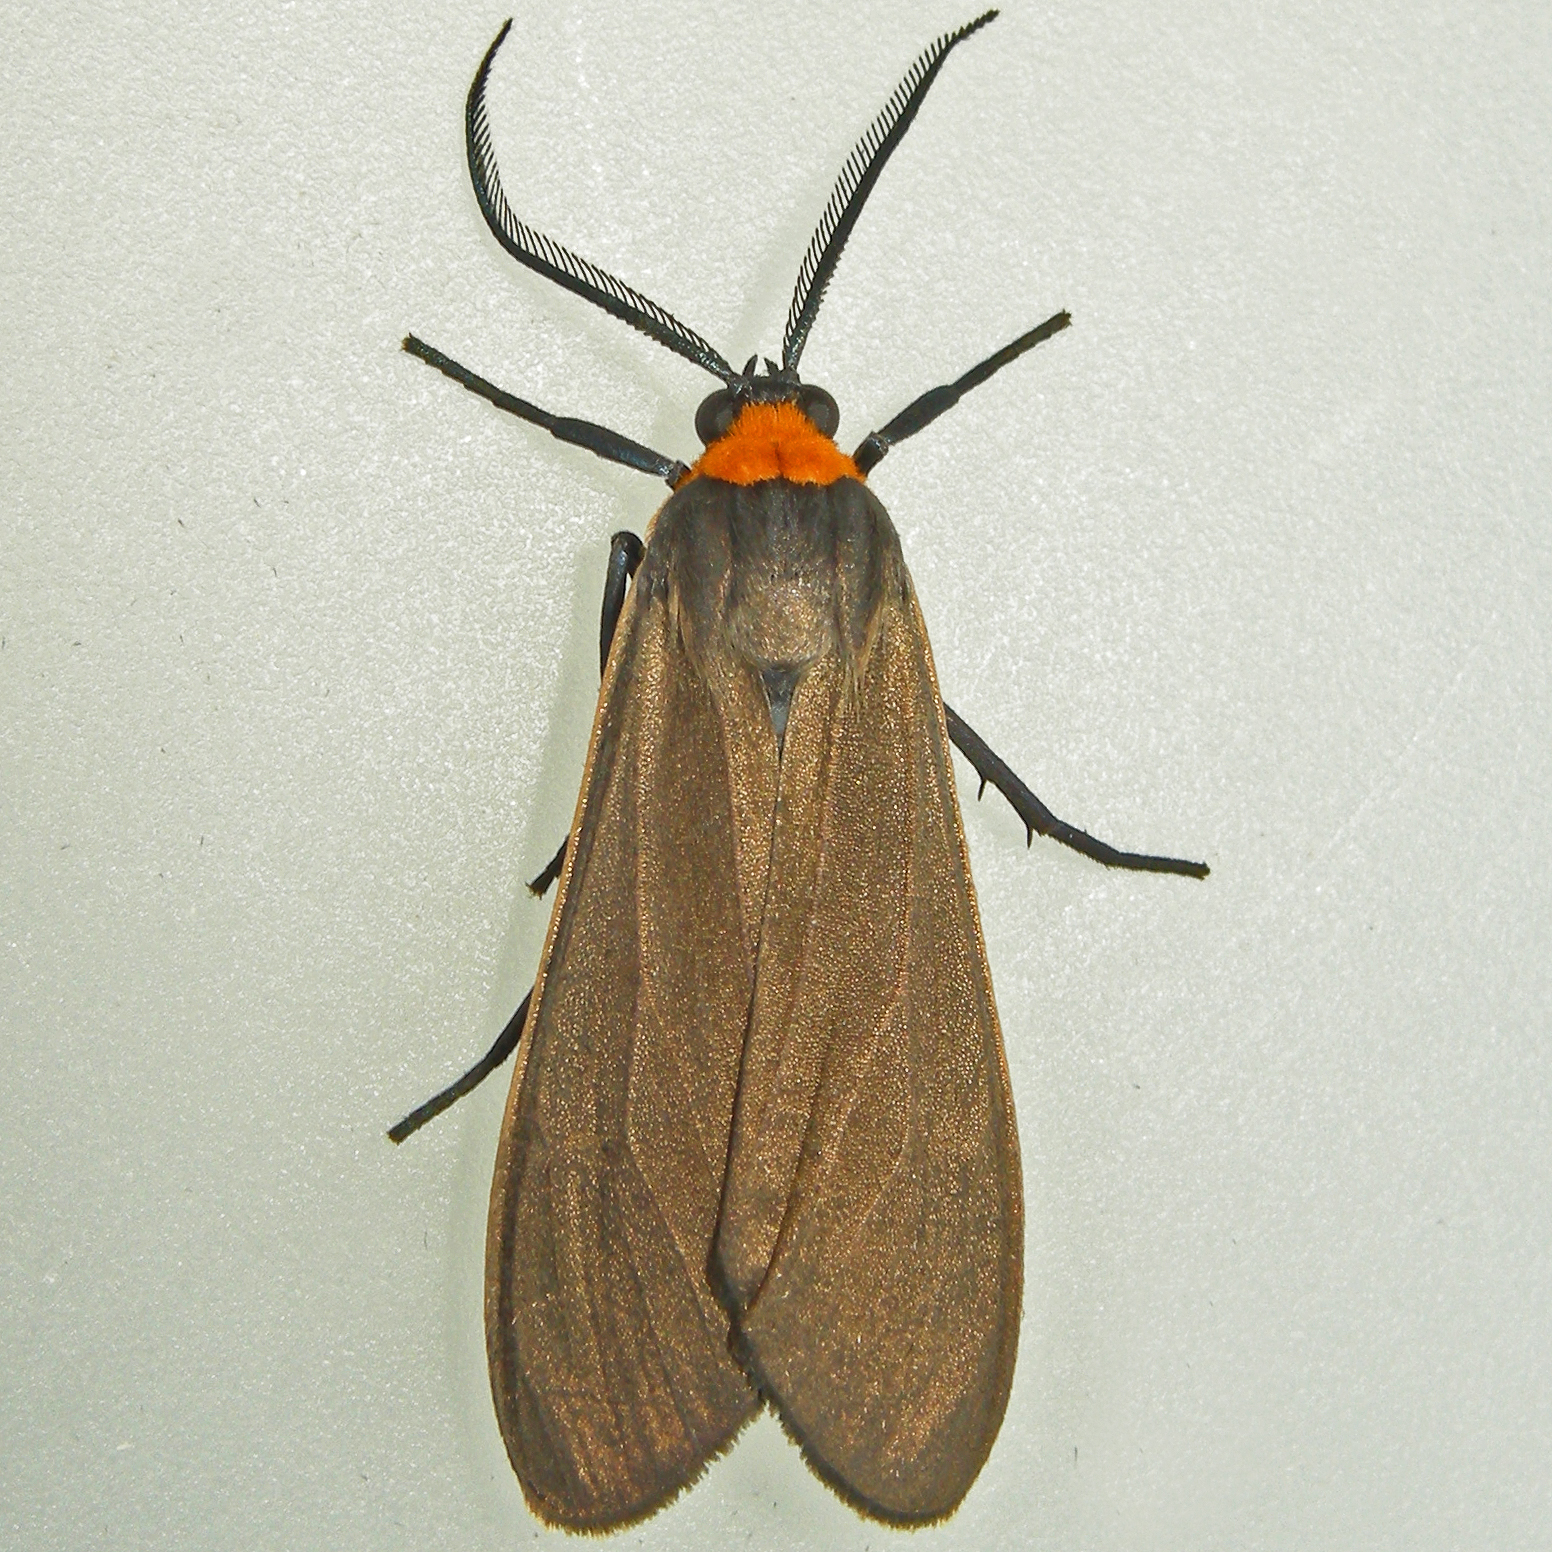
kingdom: Animalia
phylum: Arthropoda
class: Insecta
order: Lepidoptera
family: Erebidae
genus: Cisseps
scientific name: Cisseps fulvicollis
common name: Yellow-collared scape moth
